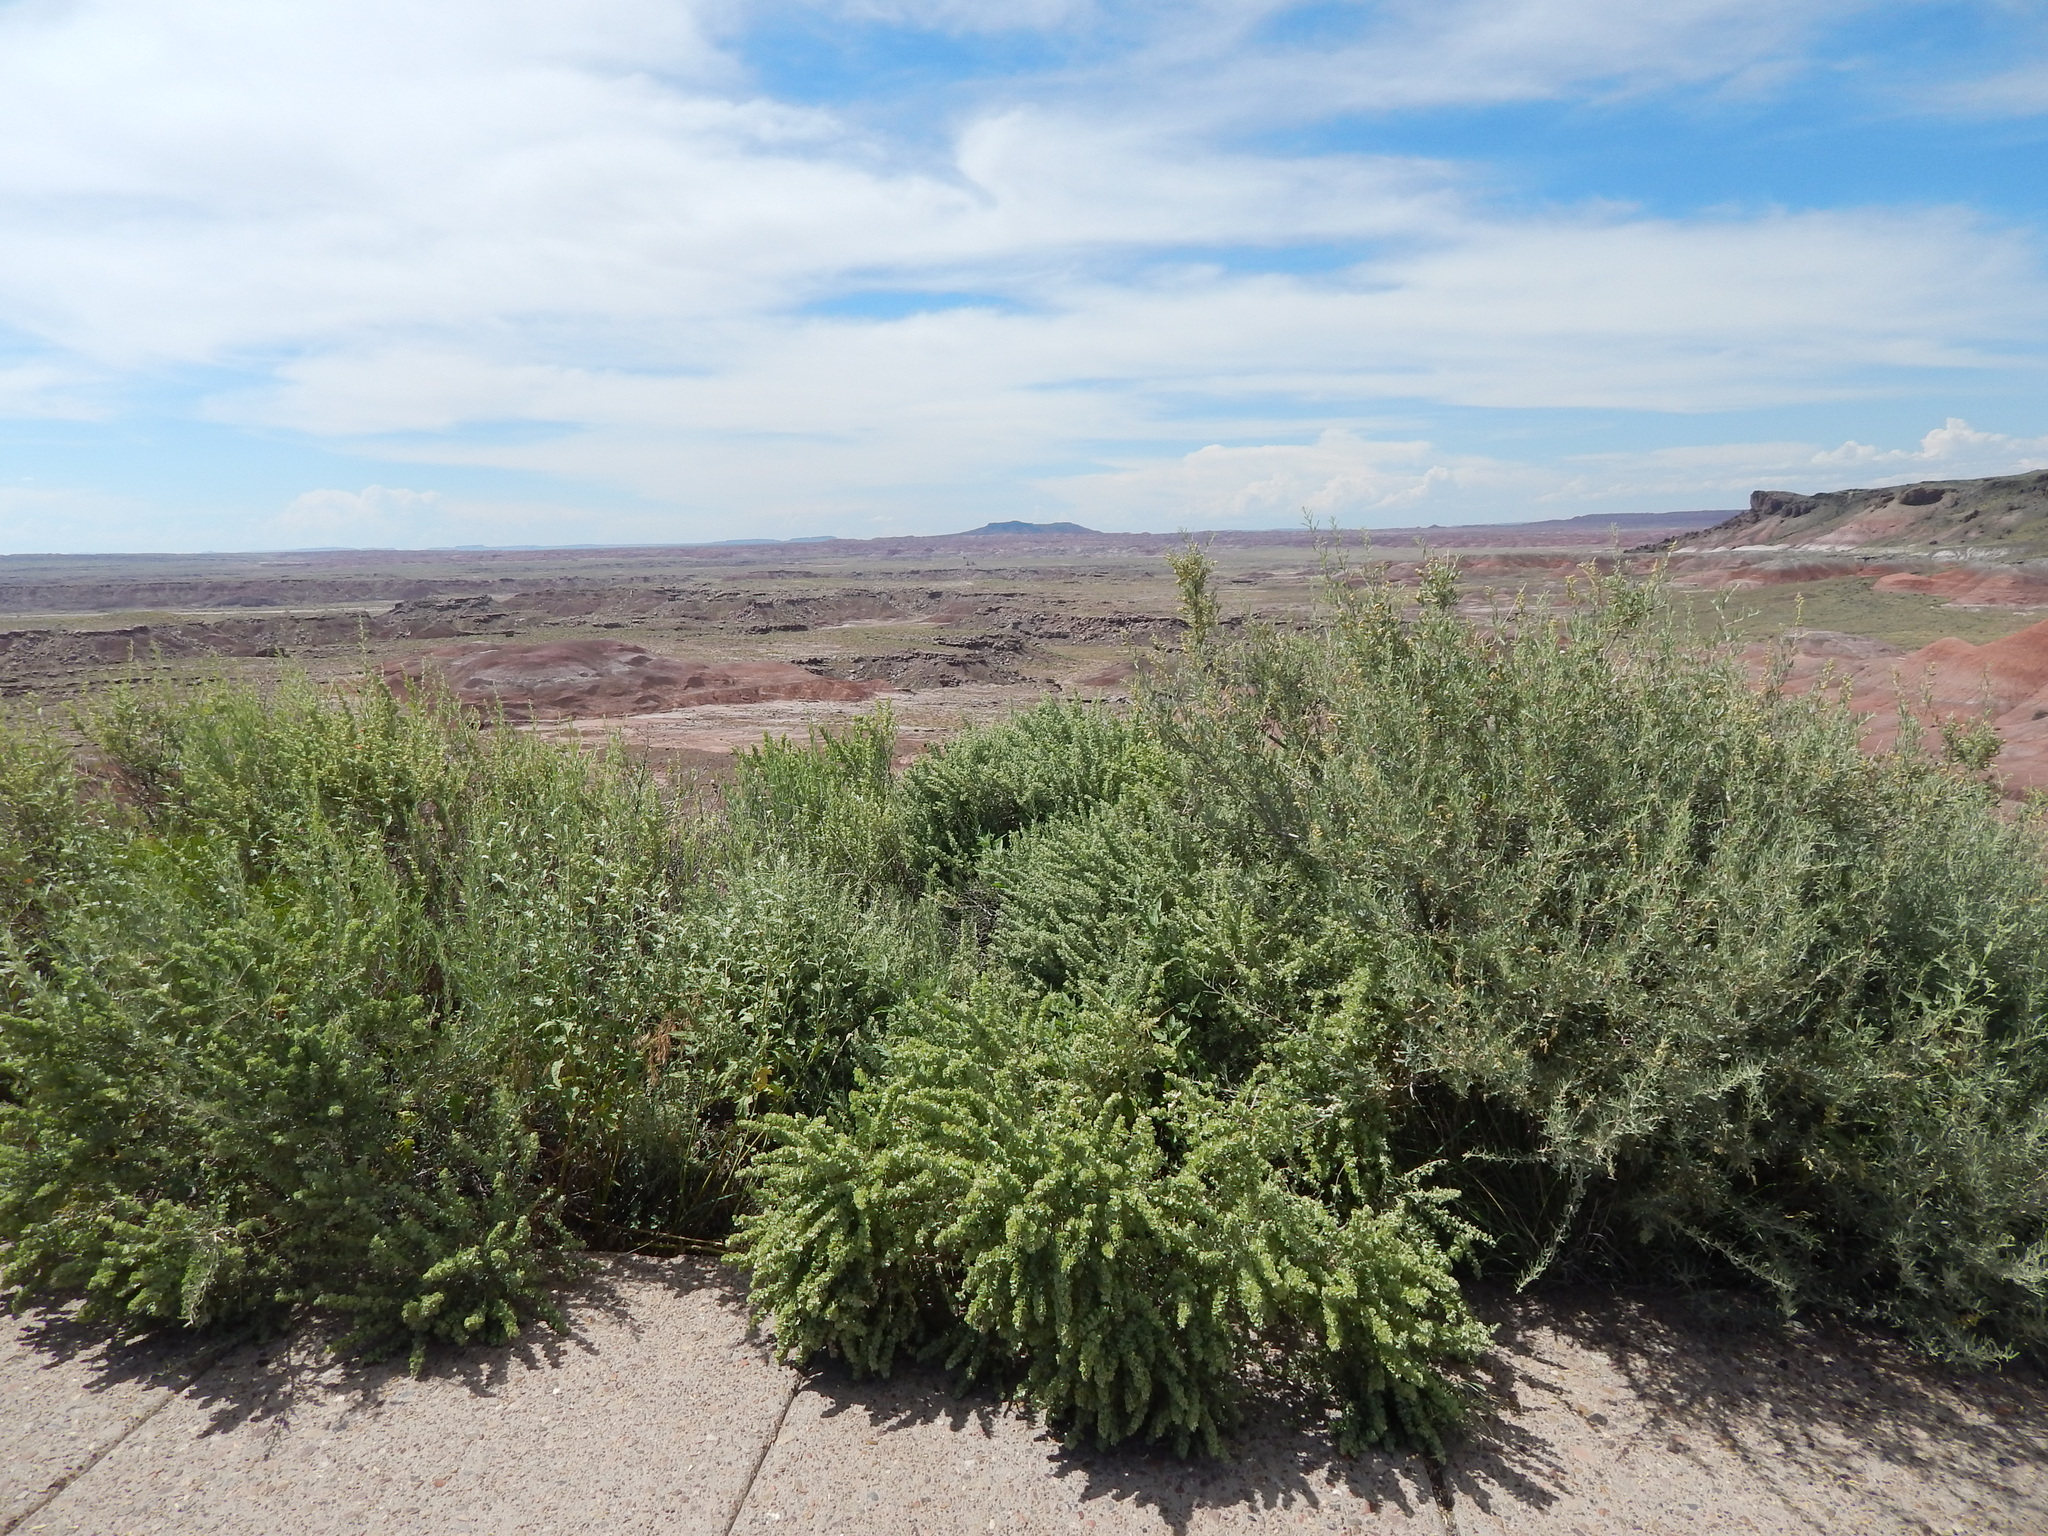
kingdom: Plantae
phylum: Tracheophyta
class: Magnoliopsida
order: Caryophyllales
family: Amaranthaceae
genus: Atriplex
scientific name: Atriplex canescens
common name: Four-wing saltbush
